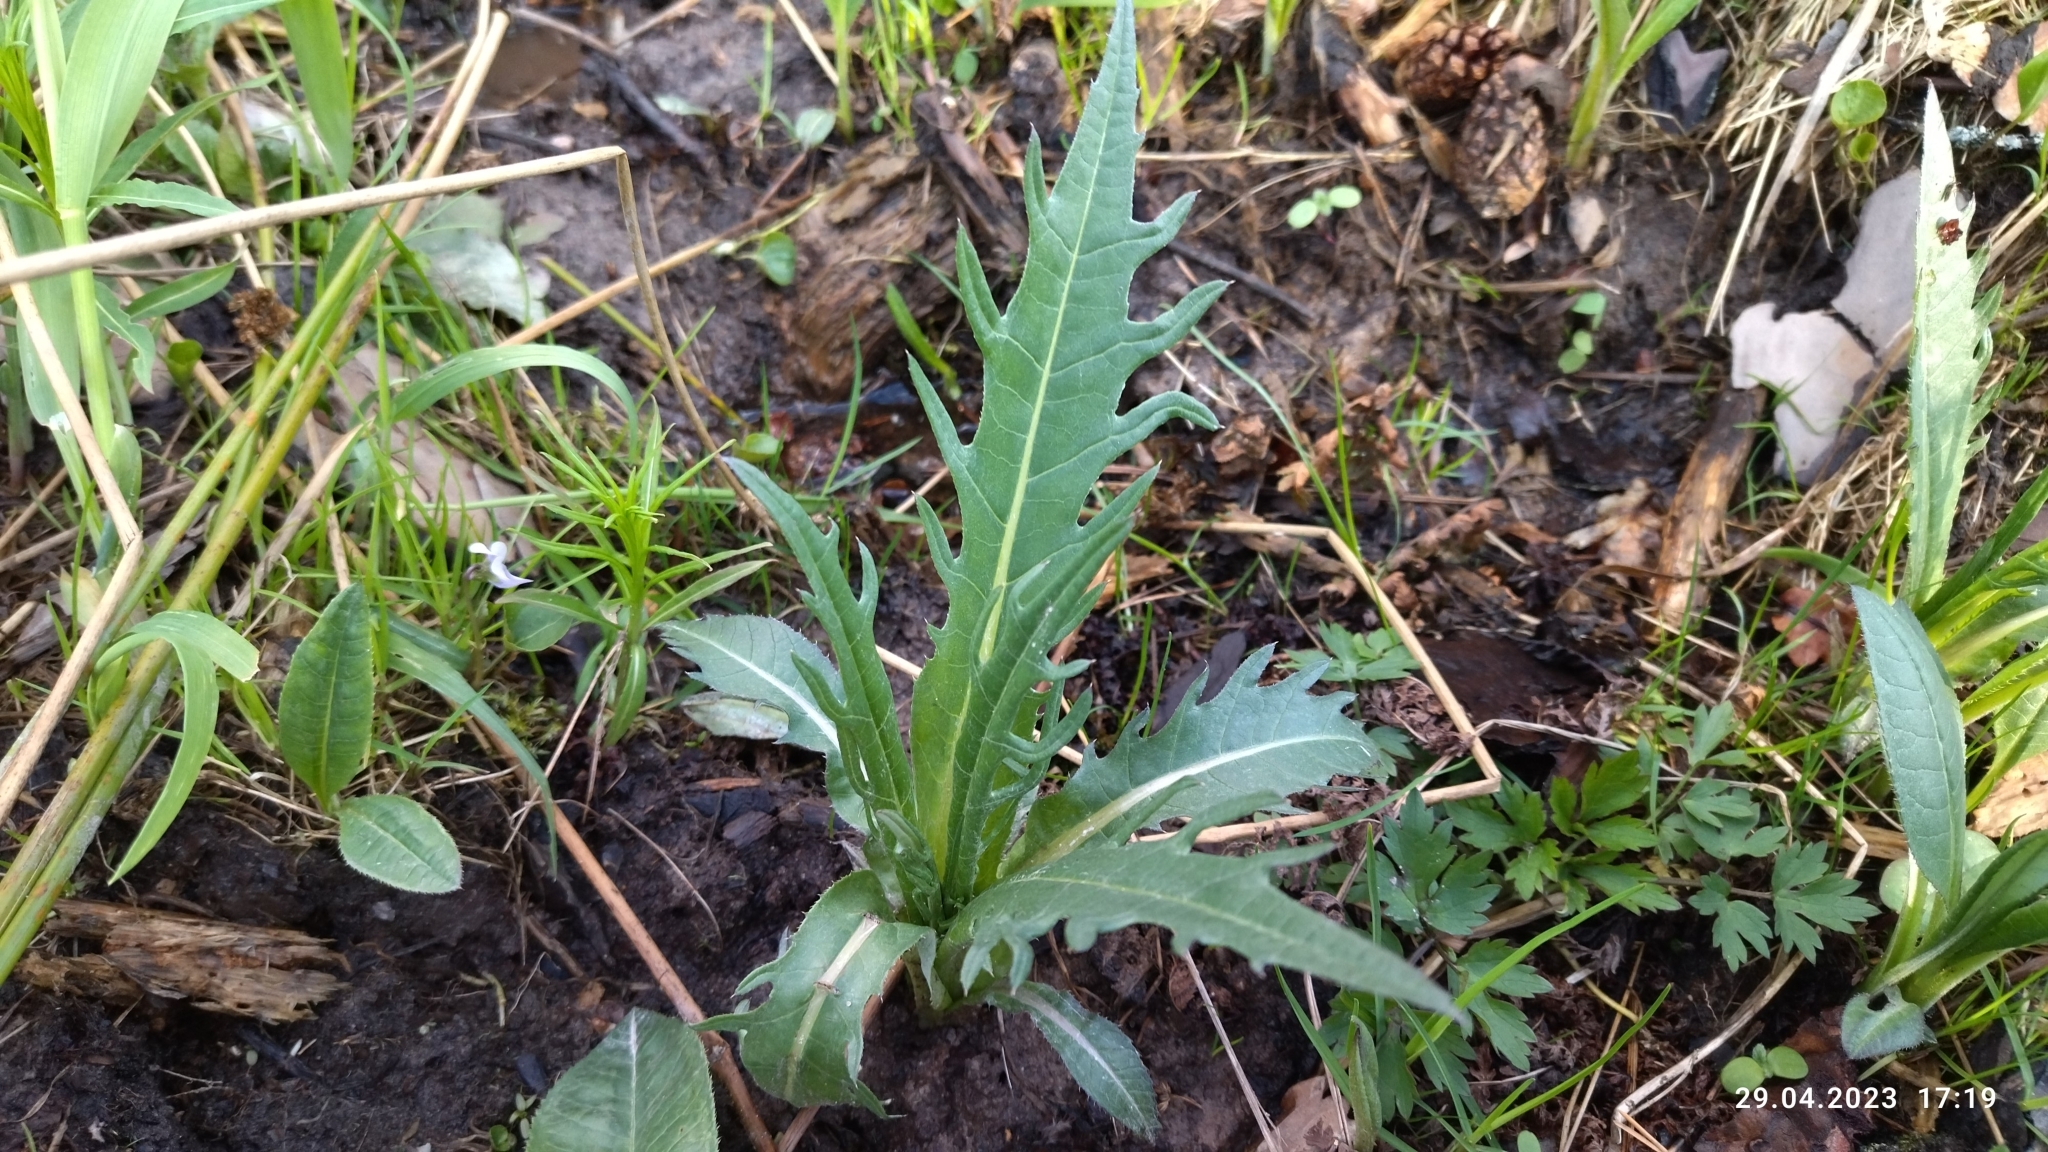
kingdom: Plantae
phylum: Tracheophyta
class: Magnoliopsida
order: Asterales
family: Asteraceae
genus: Cirsium
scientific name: Cirsium heterophyllum
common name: Melancholy thistle
